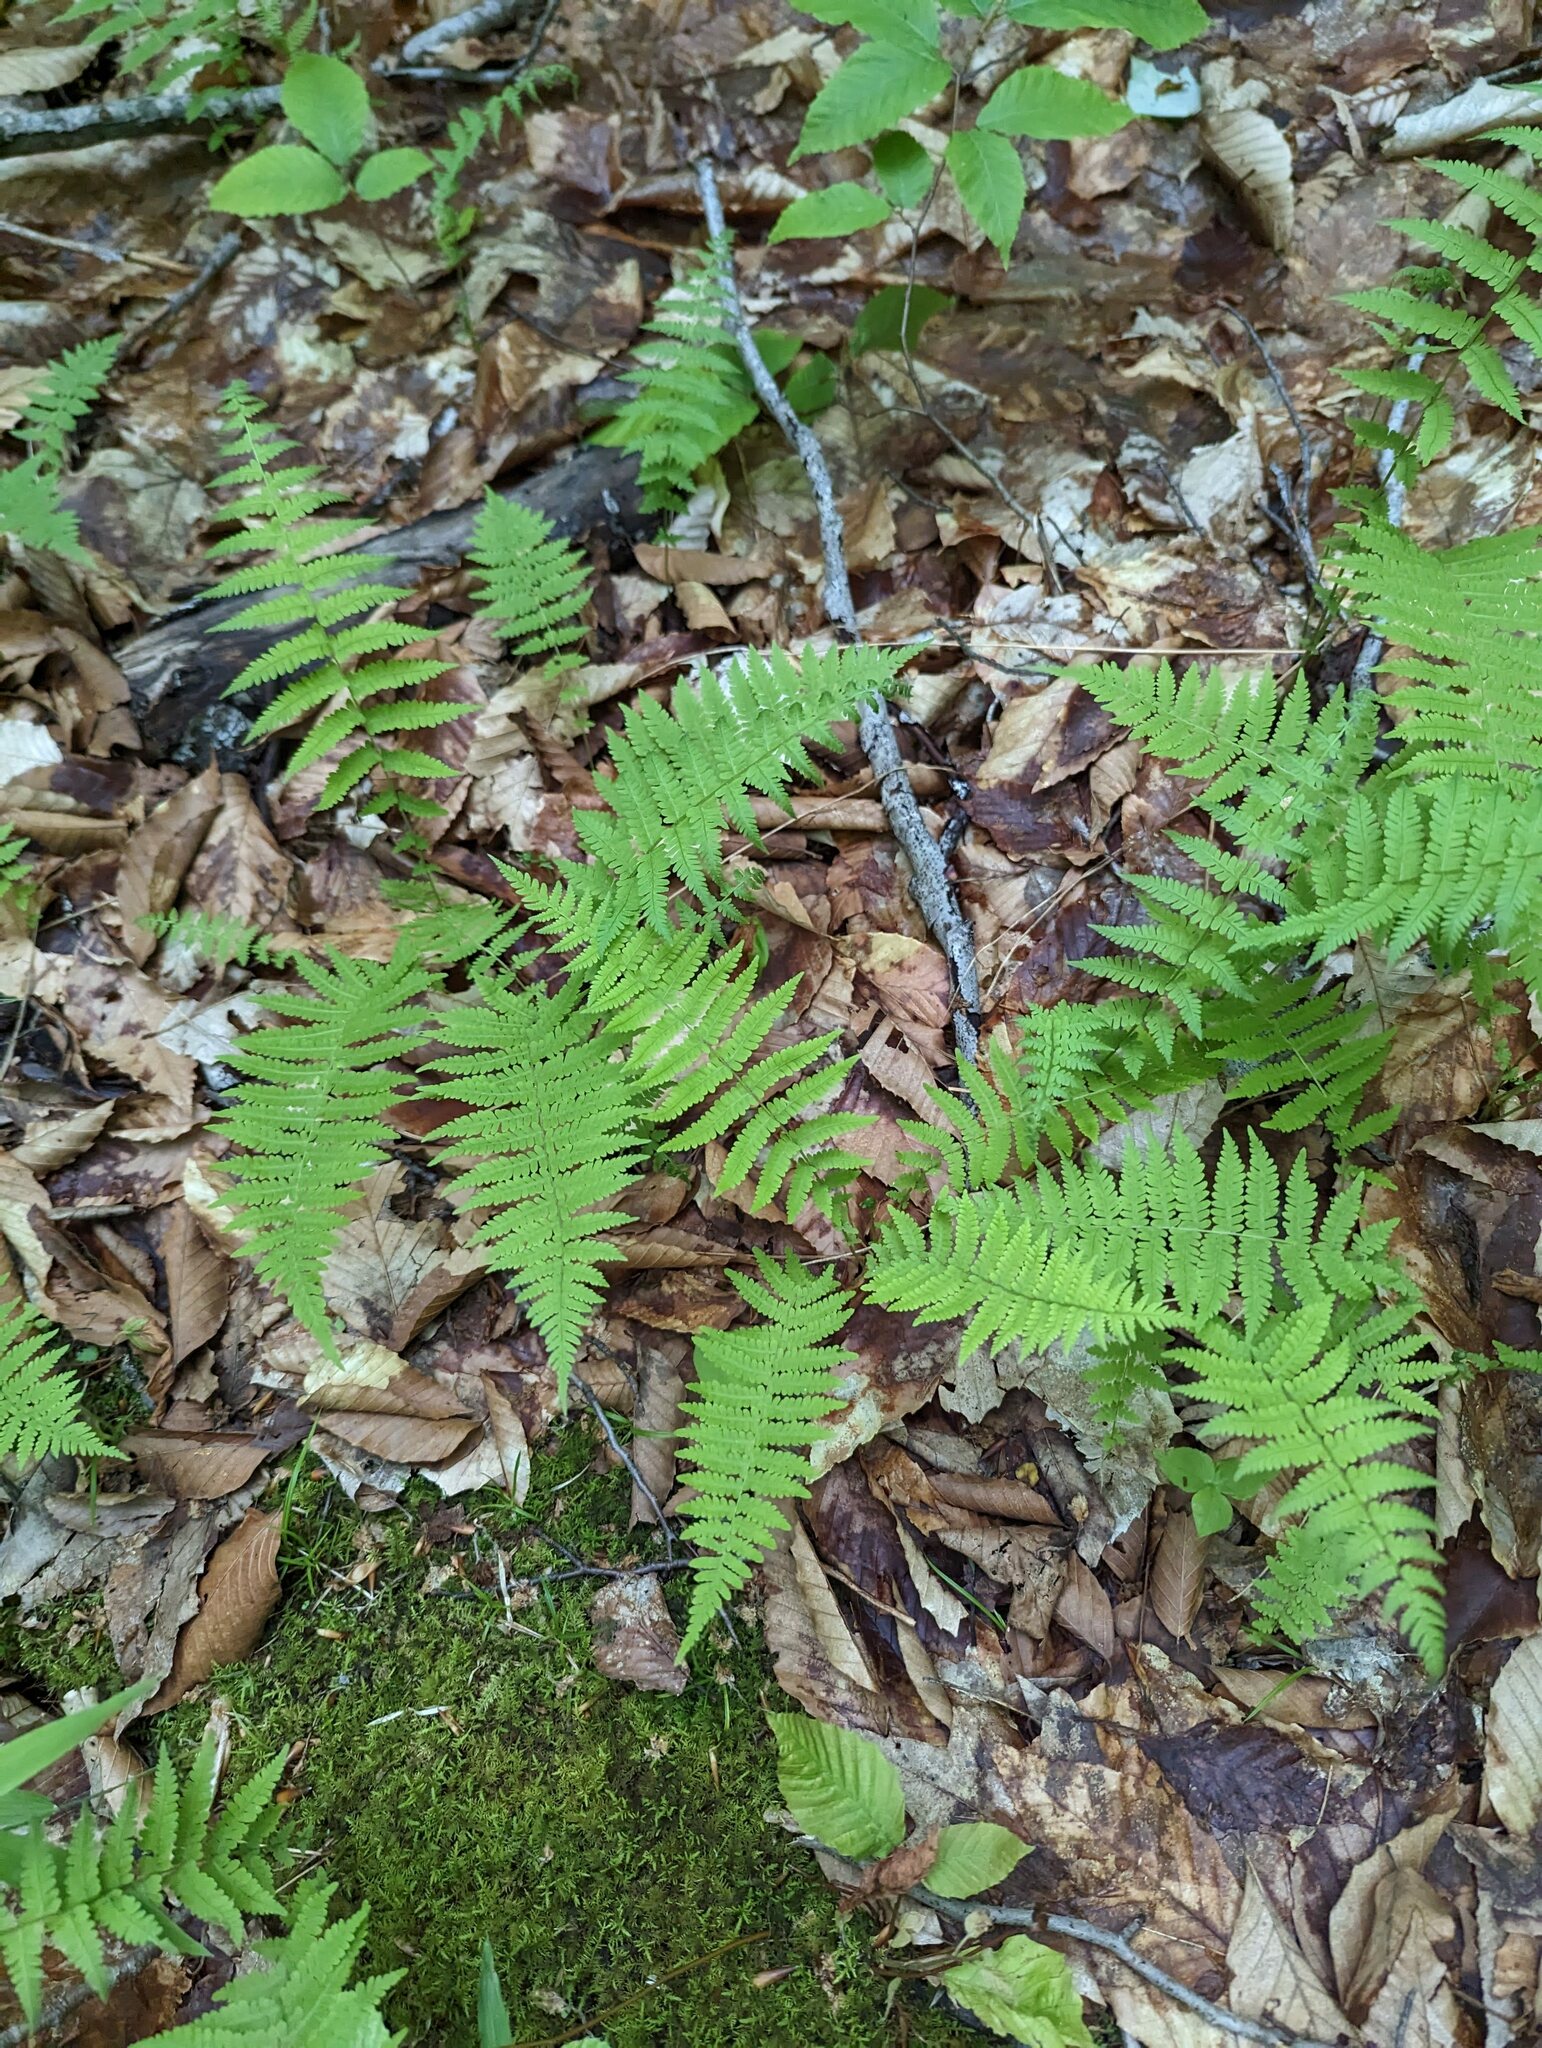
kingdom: Plantae
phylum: Tracheophyta
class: Polypodiopsida
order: Polypodiales
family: Thelypteridaceae
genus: Amauropelta
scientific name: Amauropelta noveboracensis
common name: New york fern
